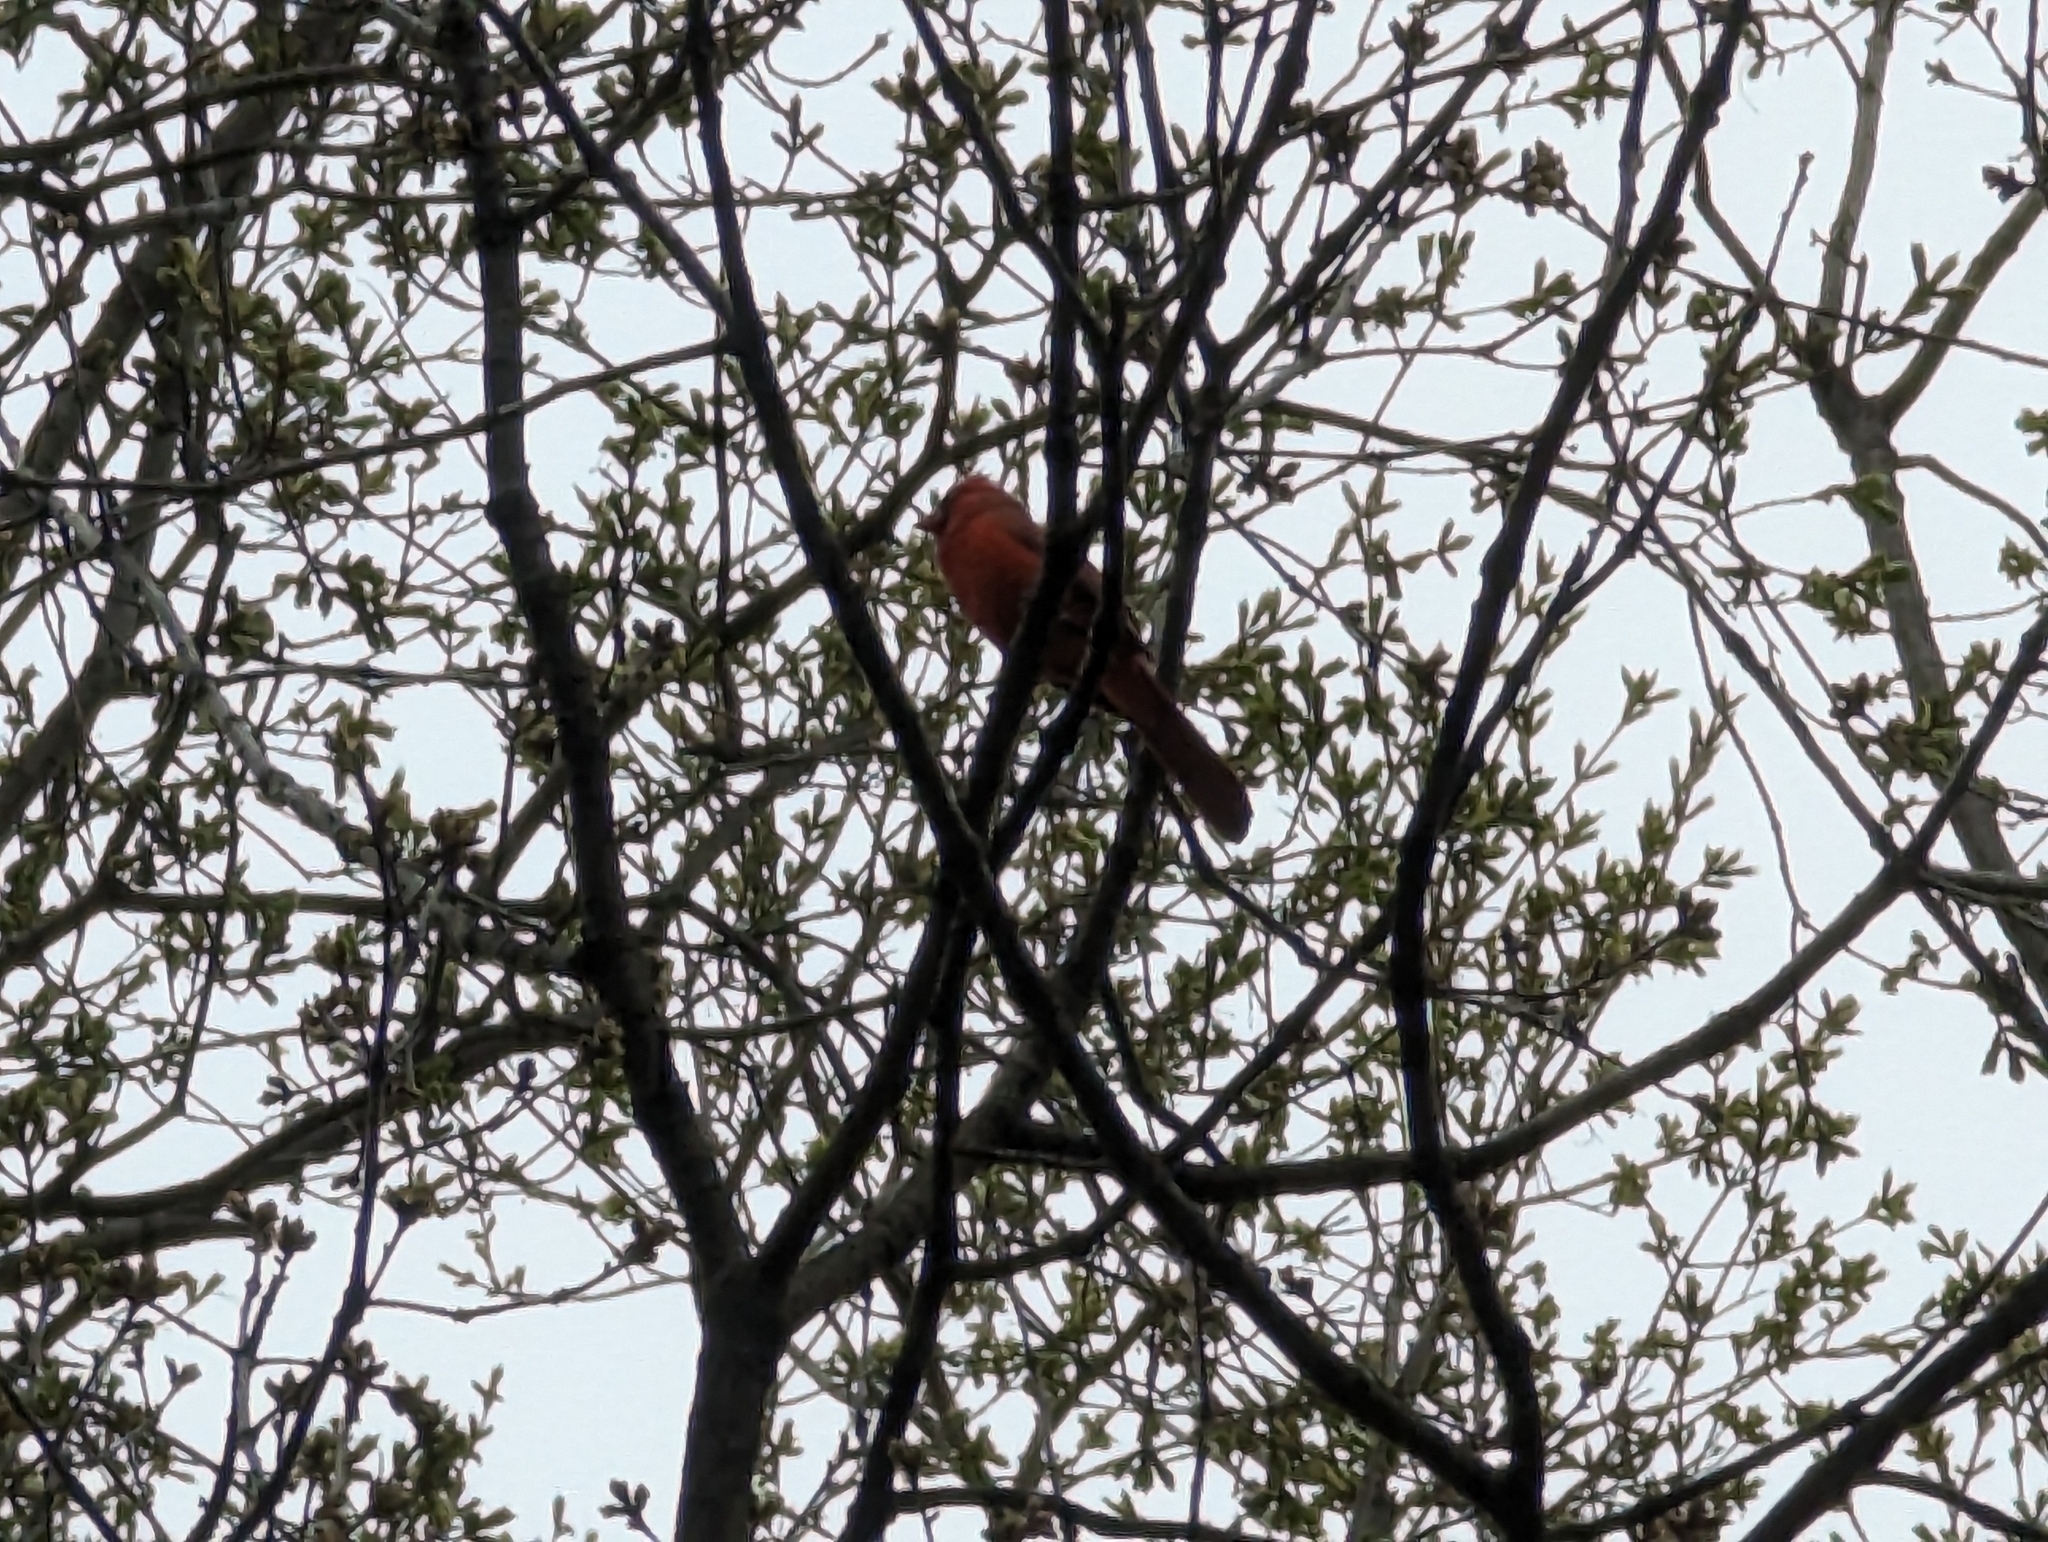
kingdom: Animalia
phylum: Chordata
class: Aves
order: Passeriformes
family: Cardinalidae
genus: Cardinalis
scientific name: Cardinalis cardinalis
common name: Northern cardinal
